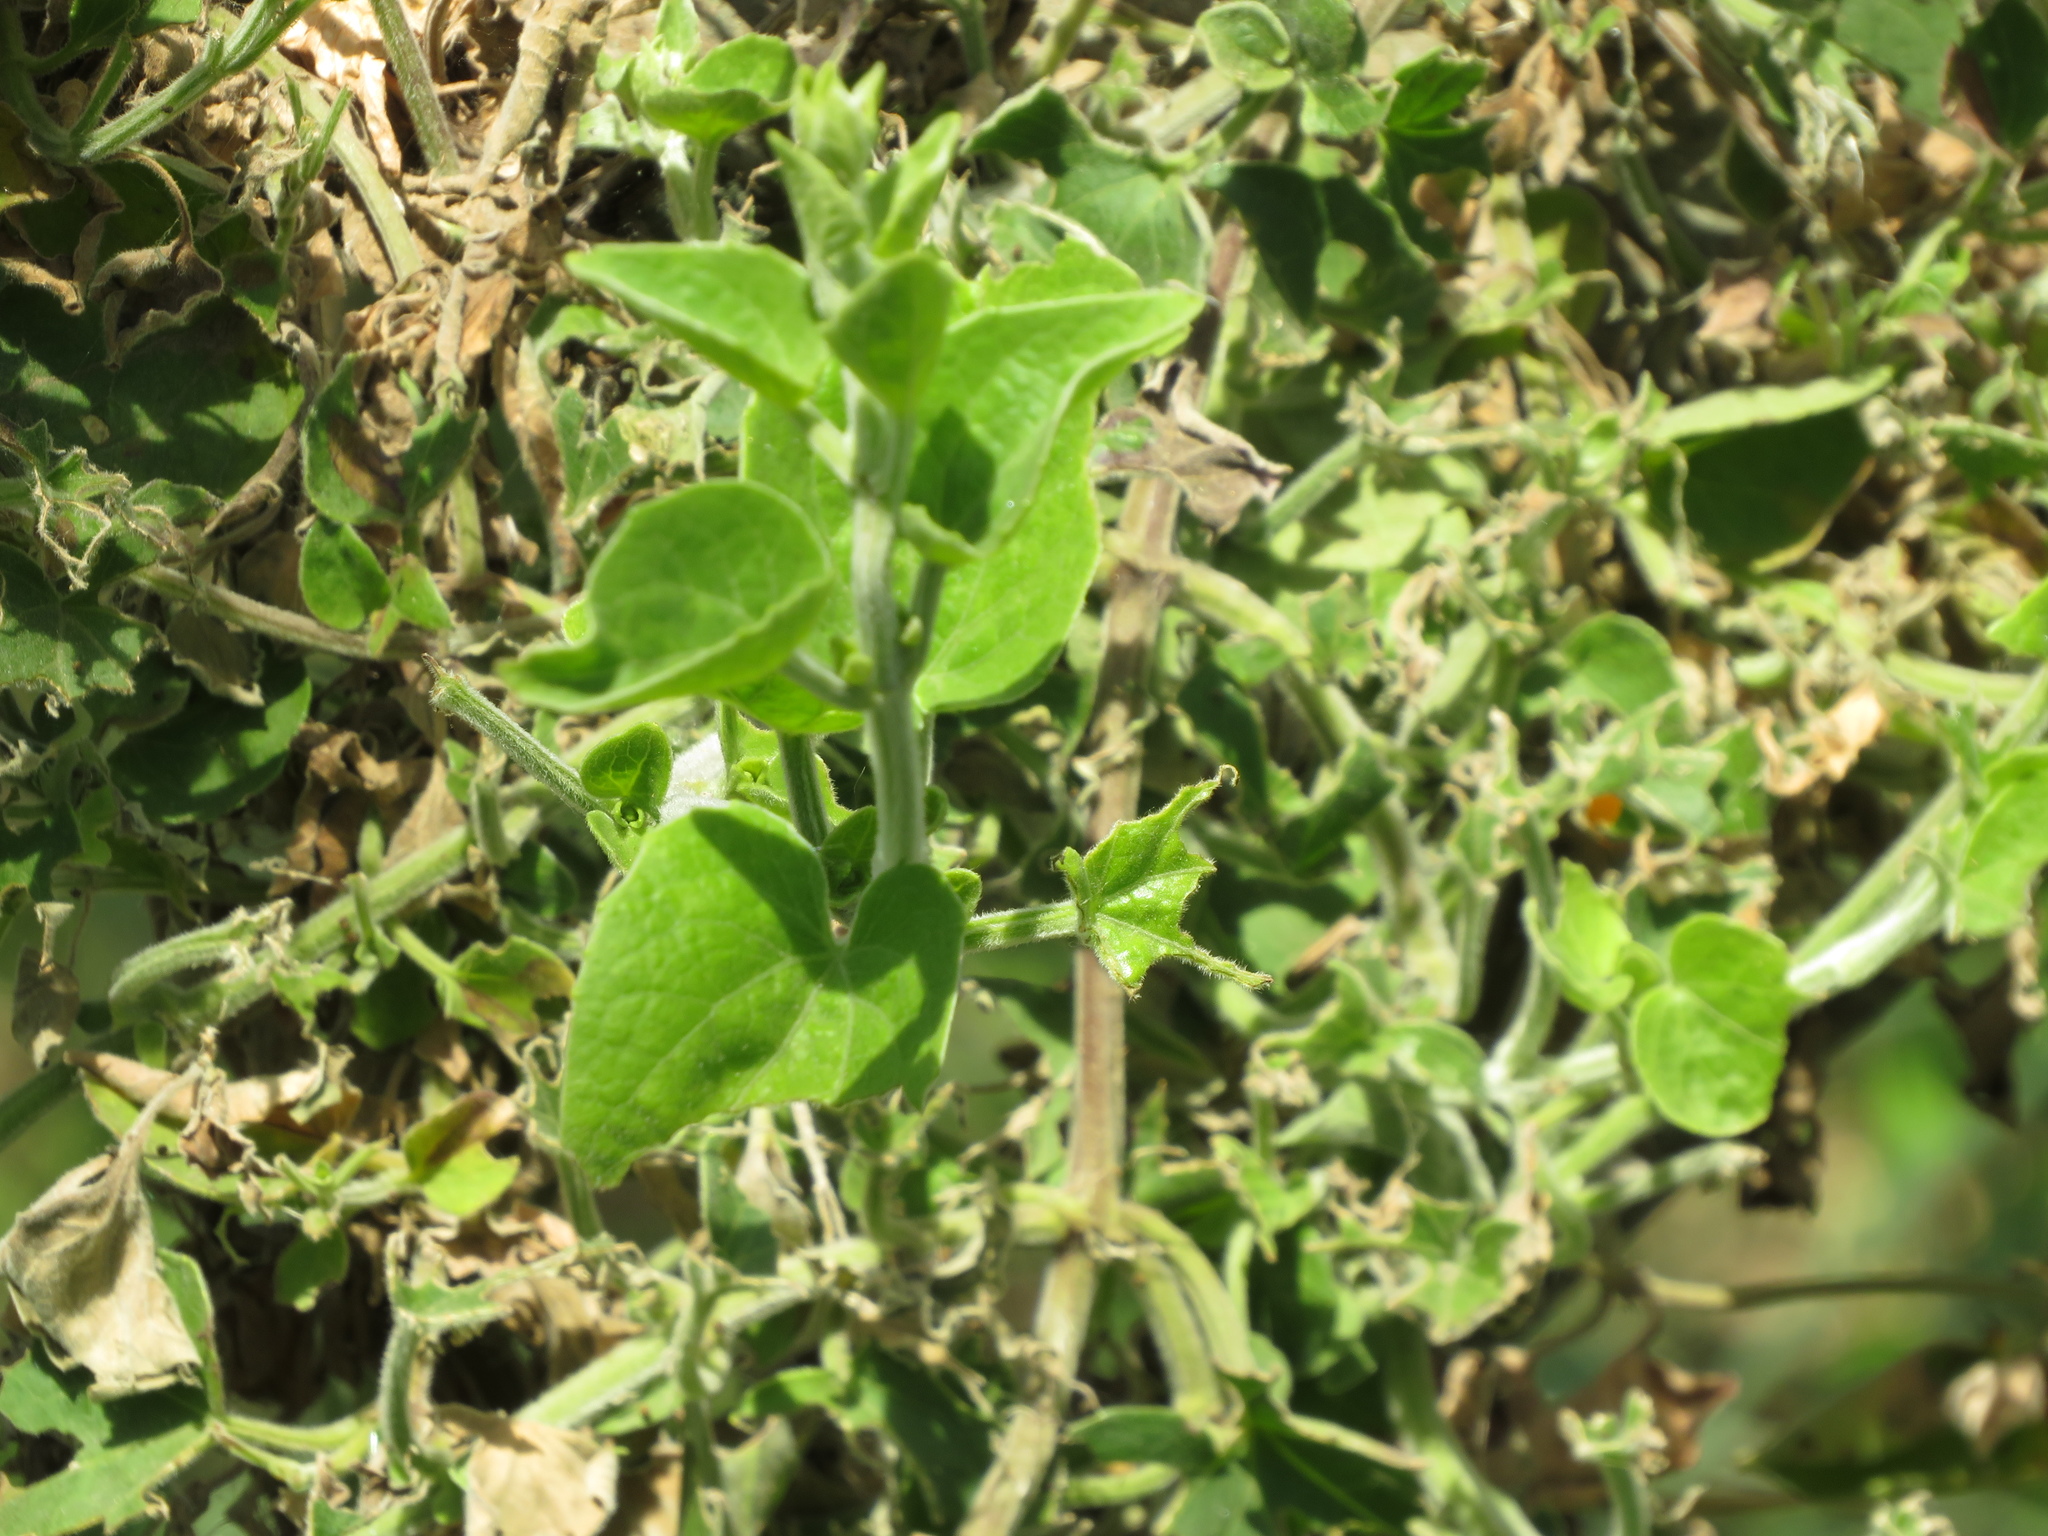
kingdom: Plantae
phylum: Tracheophyta
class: Magnoliopsida
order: Asterales
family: Asteraceae
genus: Mikania
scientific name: Mikania cordifolia
